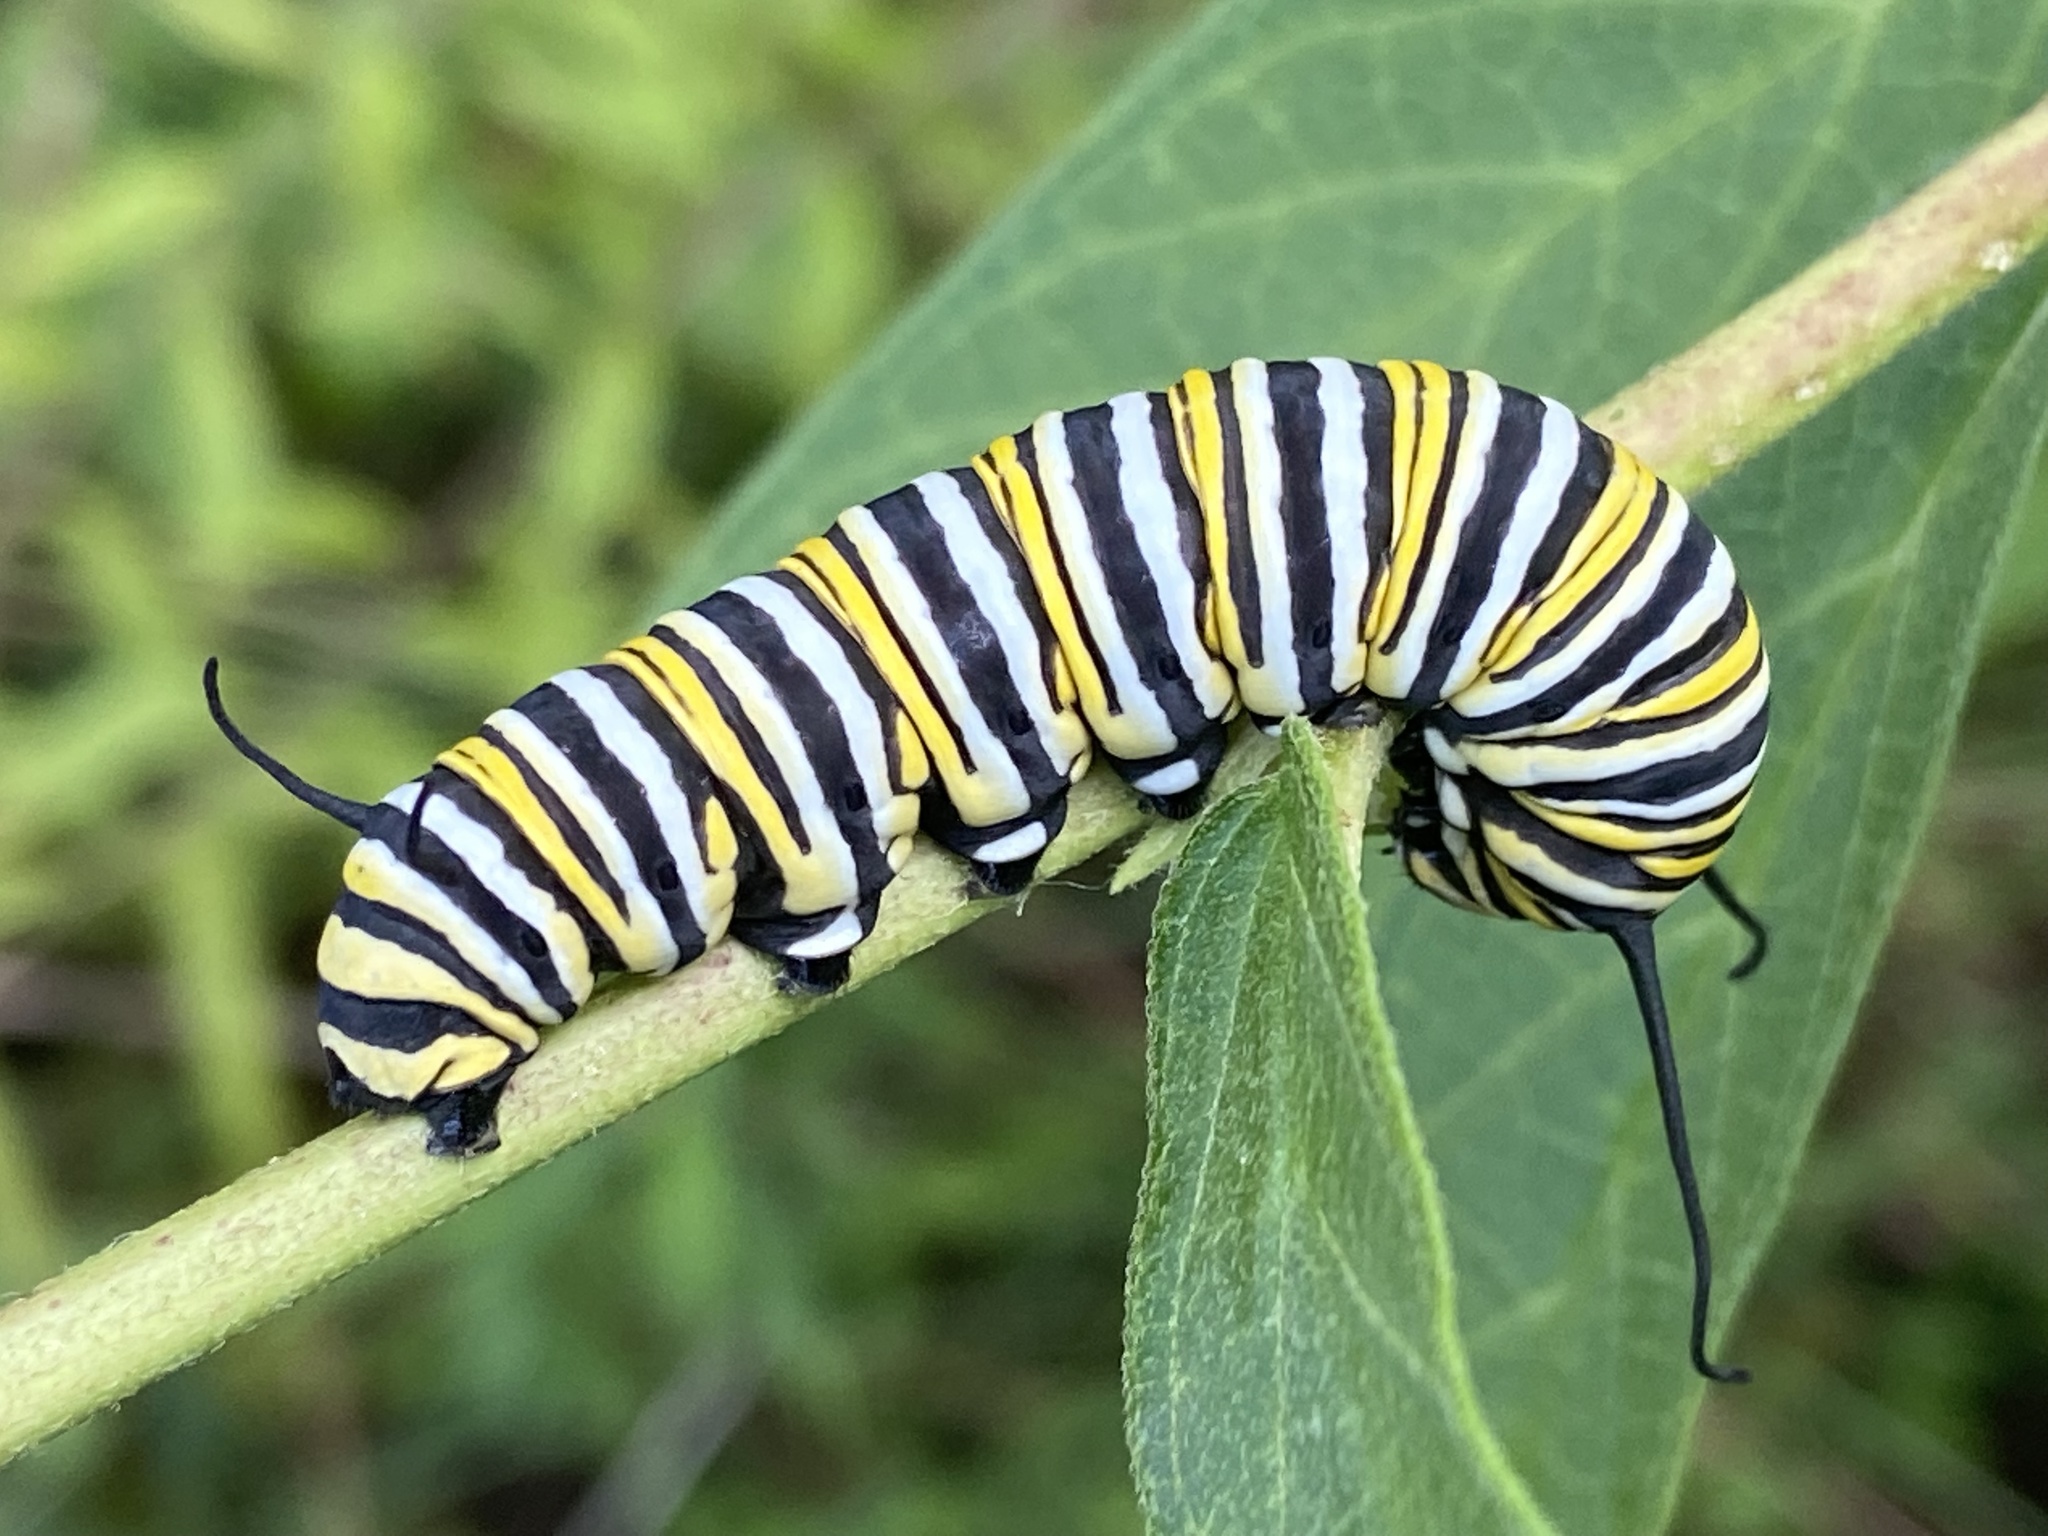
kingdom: Animalia
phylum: Arthropoda
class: Insecta
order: Lepidoptera
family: Nymphalidae
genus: Danaus
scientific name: Danaus plexippus
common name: Monarch
